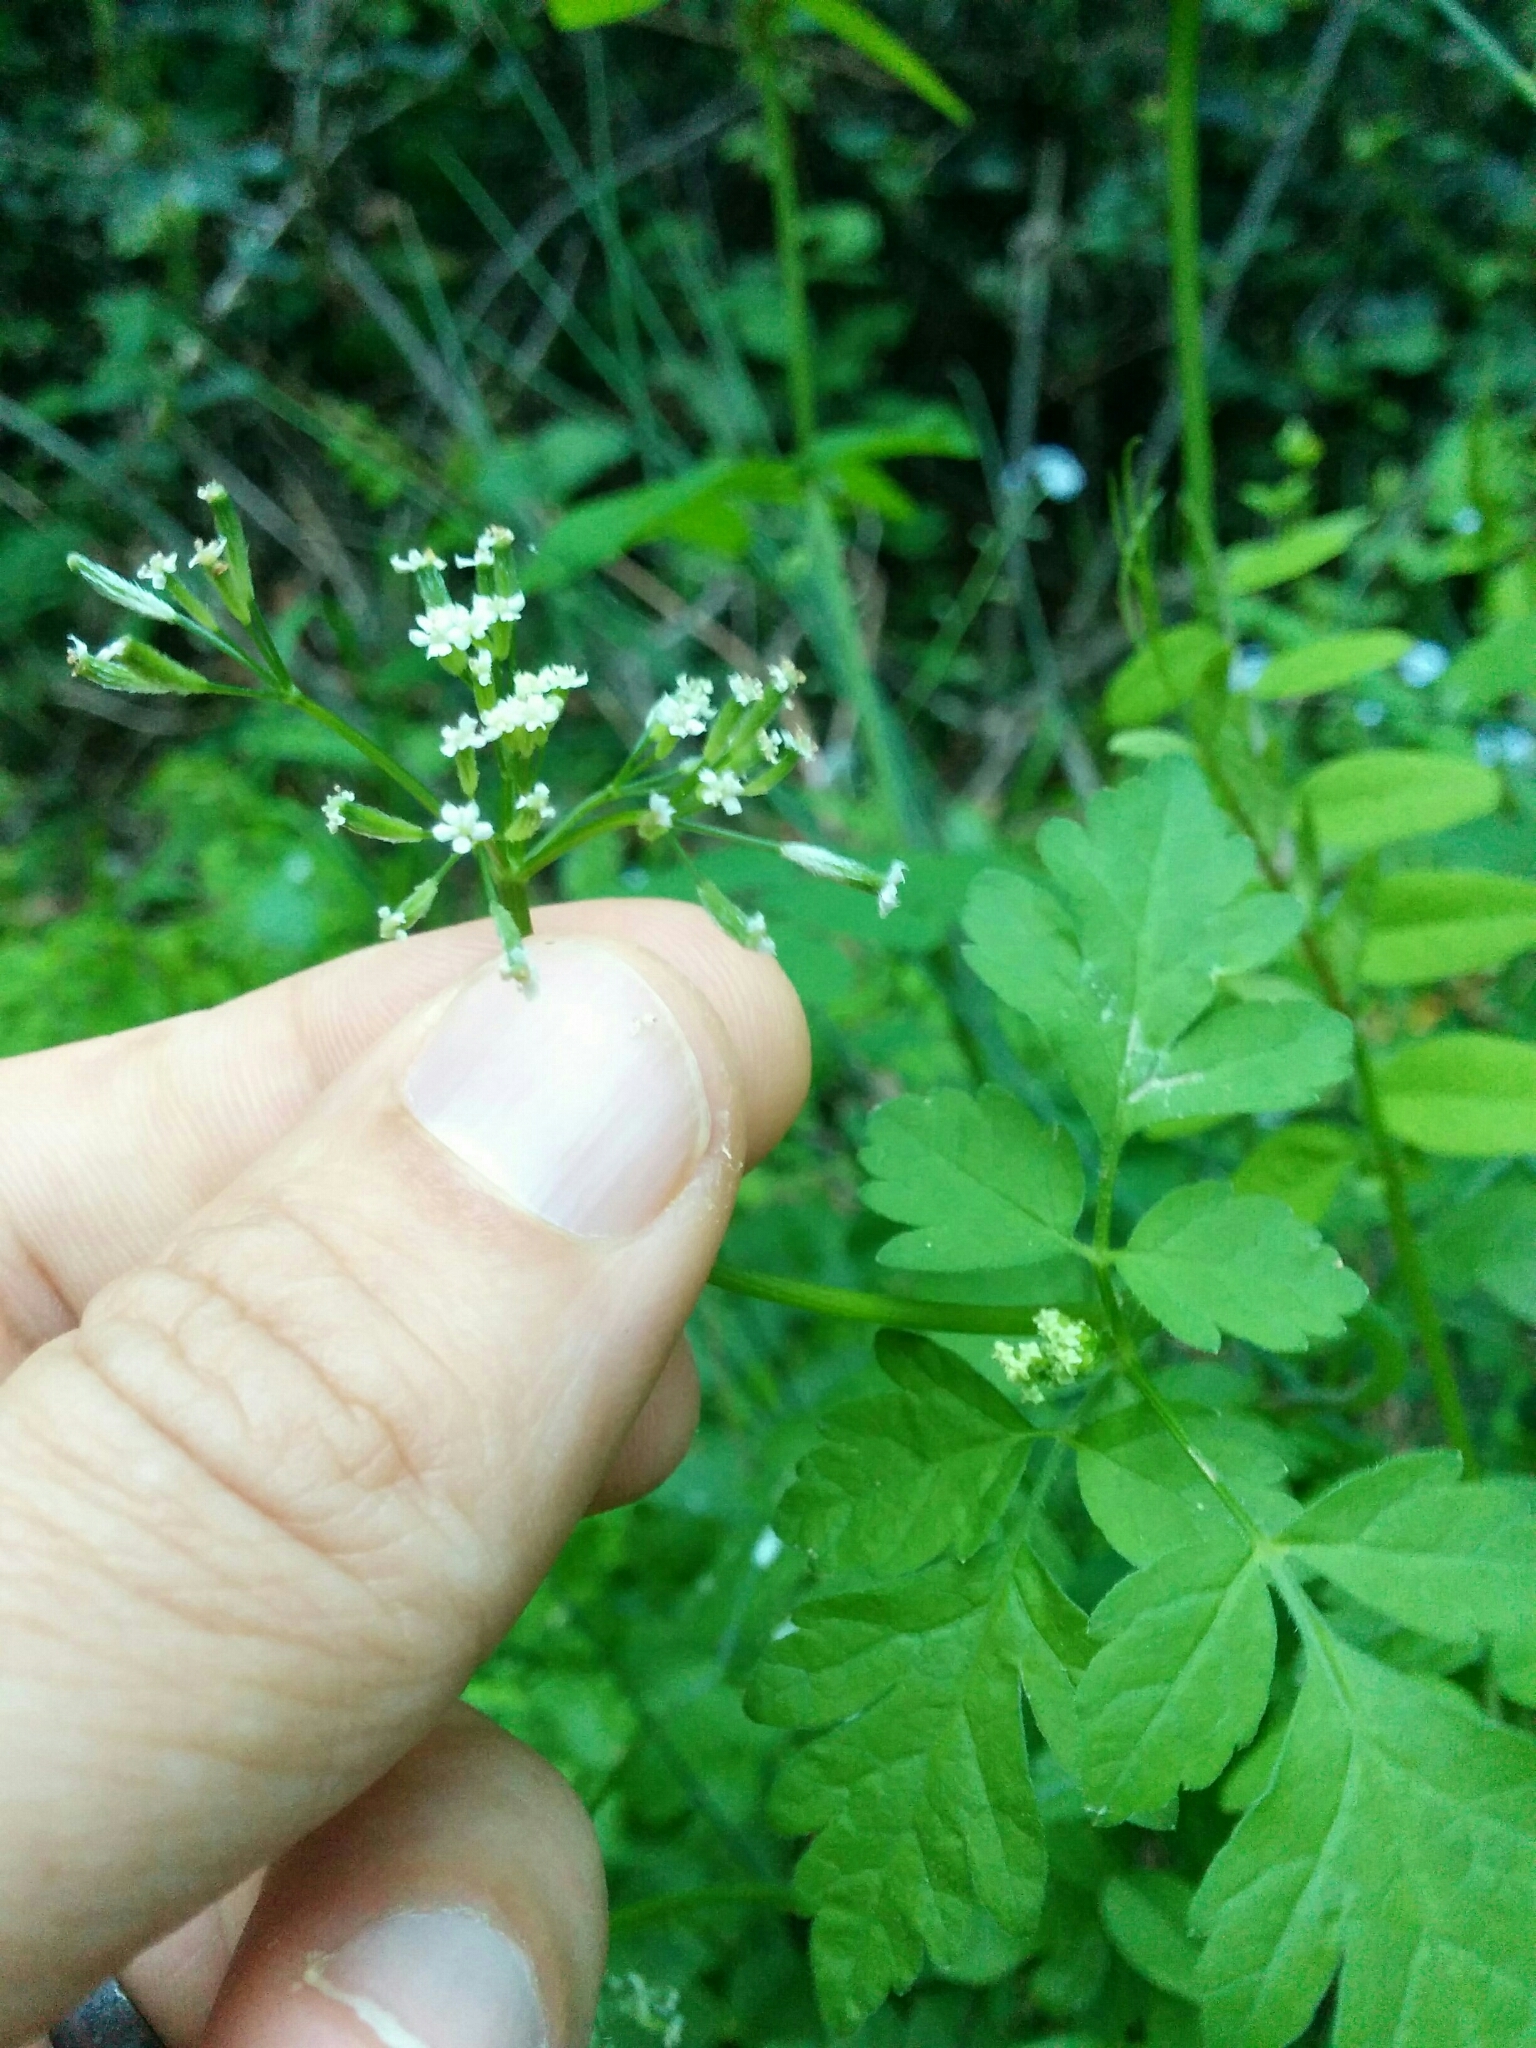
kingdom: Plantae
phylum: Tracheophyta
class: Magnoliopsida
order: Apiales
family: Apiaceae
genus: Osmorhiza
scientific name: Osmorhiza berteroi
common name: Mountain sweet cicely
